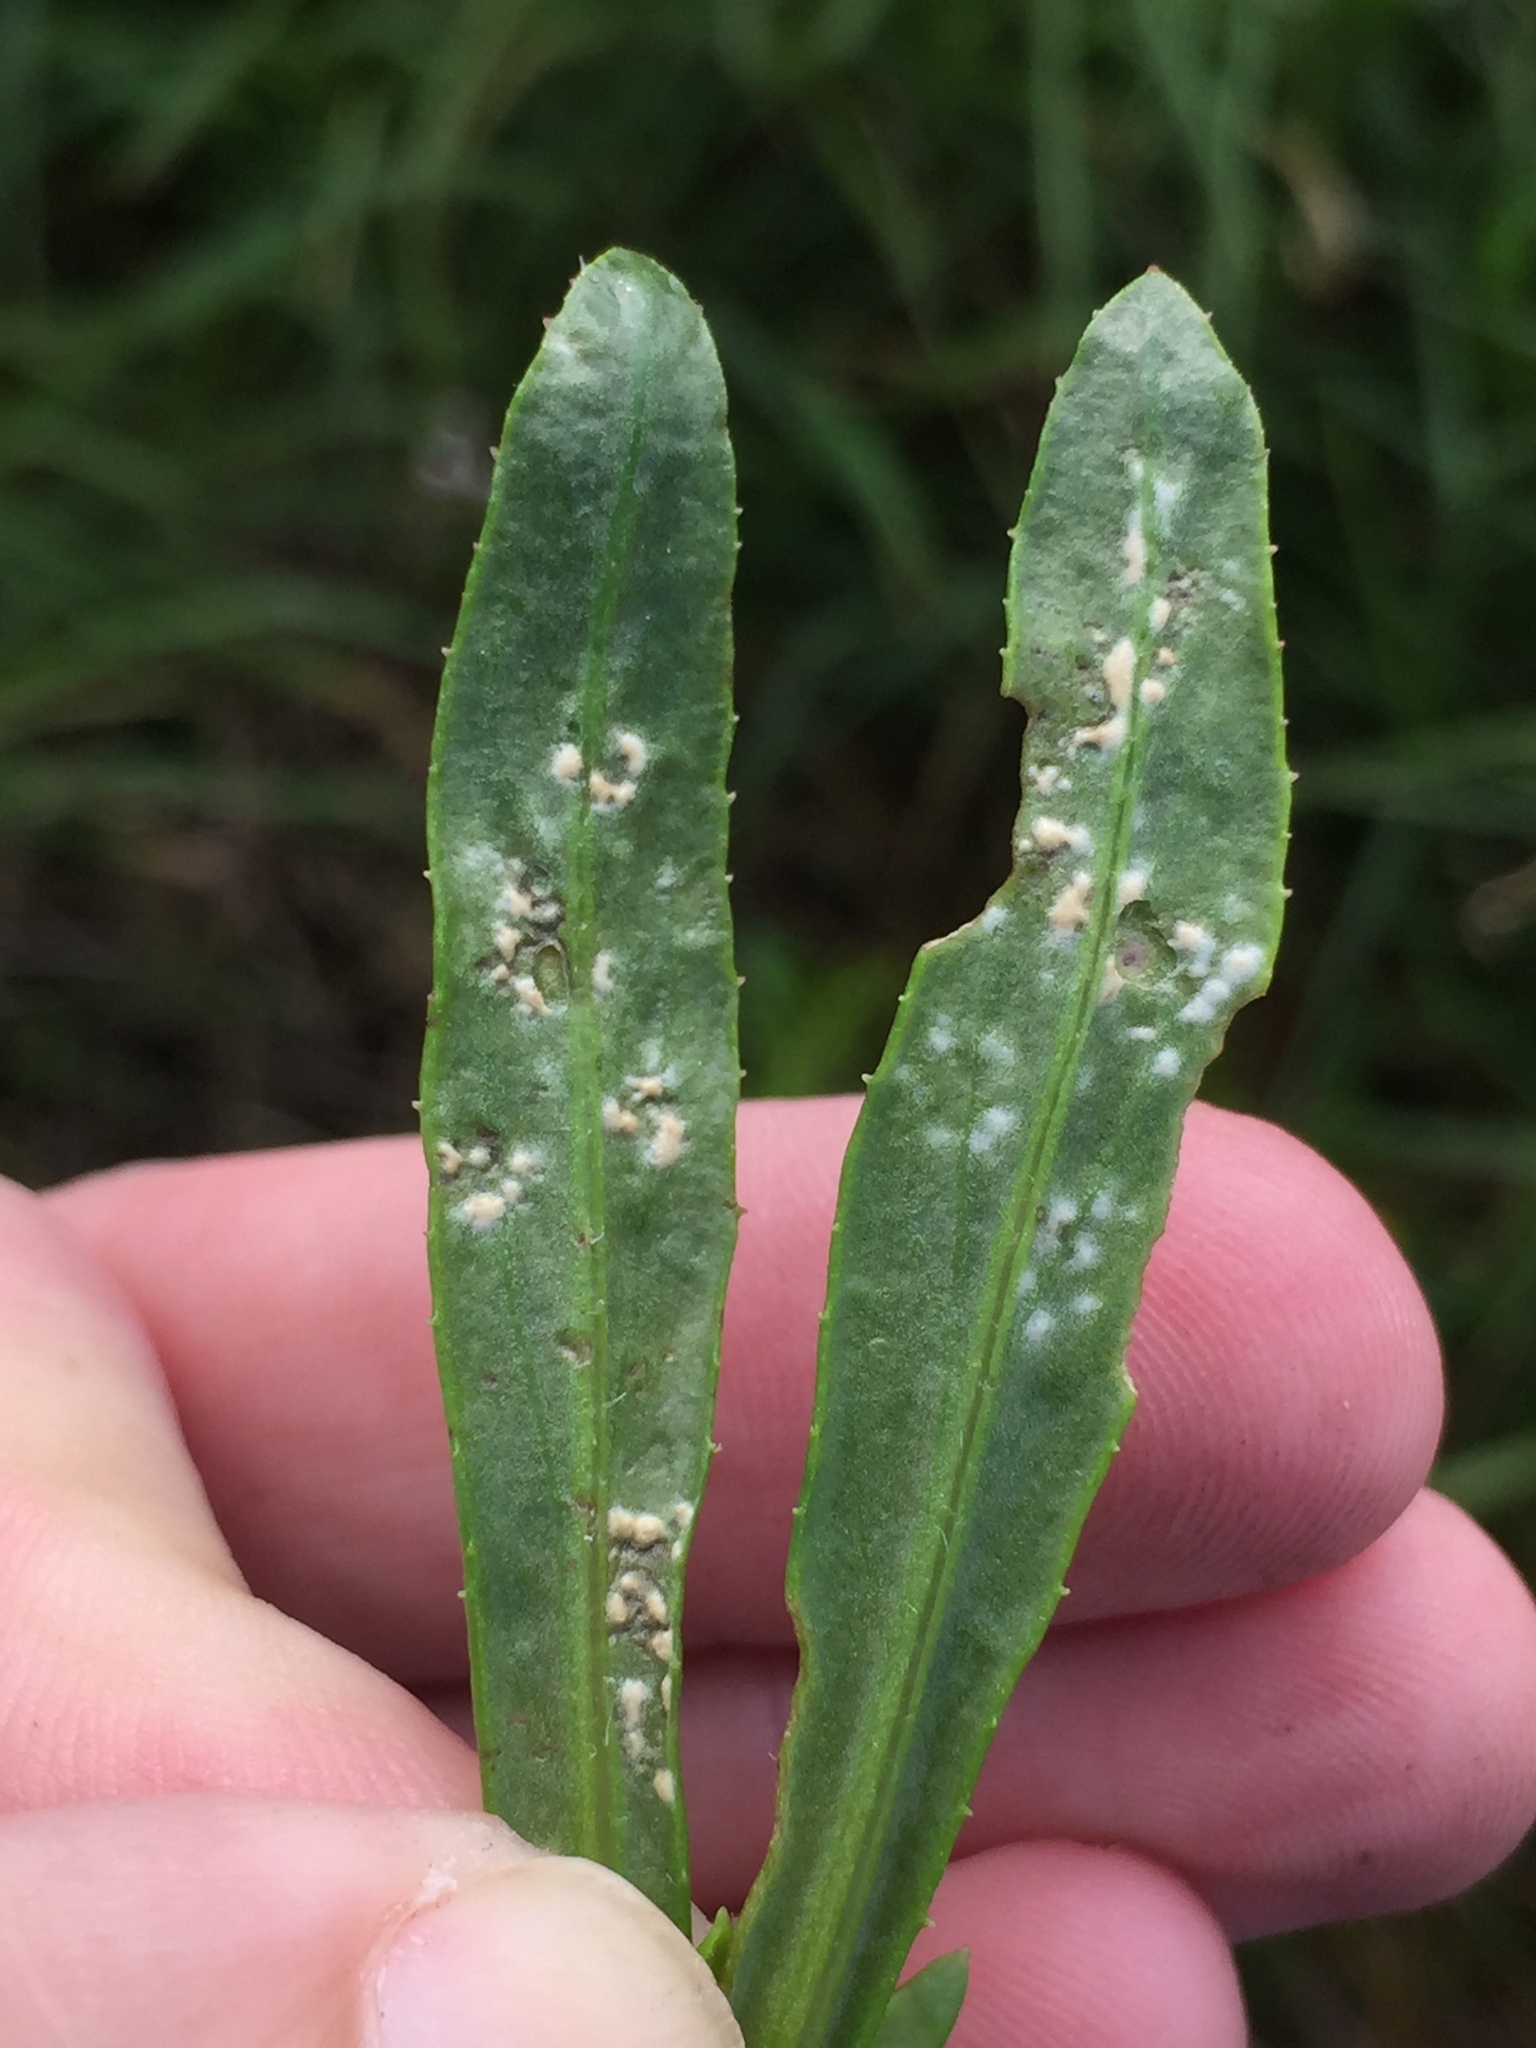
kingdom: Chromista
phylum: Oomycota
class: Peronosporea
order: Albuginales
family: Albuginaceae
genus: Pustula
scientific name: Pustula
